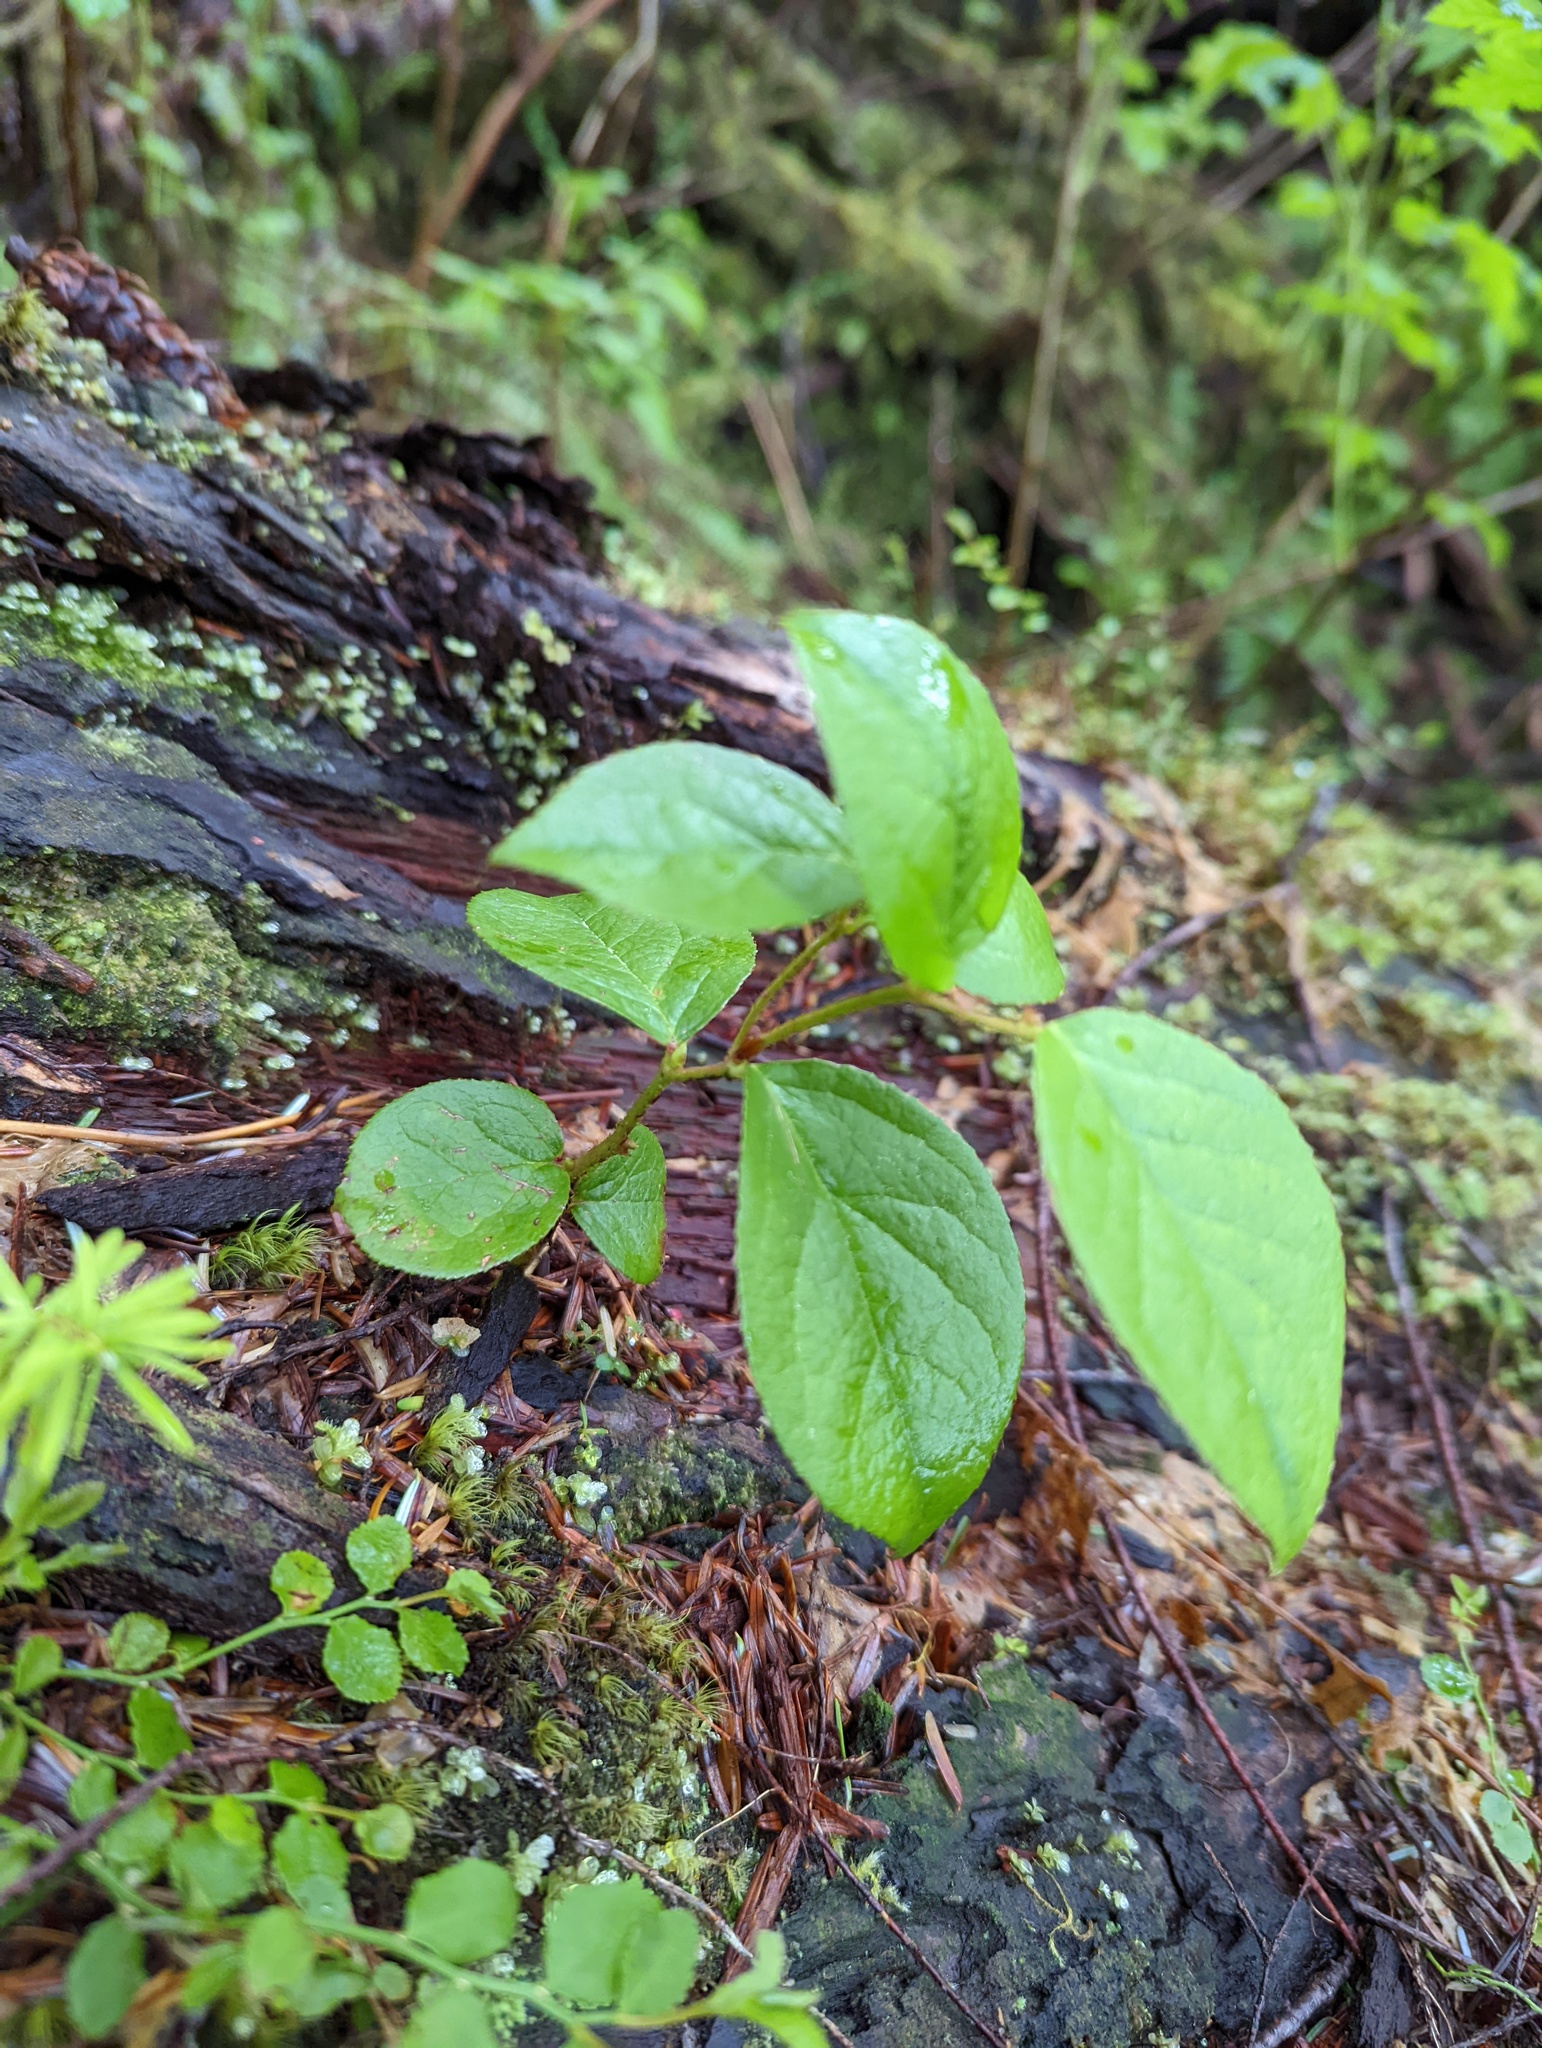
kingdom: Plantae
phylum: Tracheophyta
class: Magnoliopsida
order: Ericales
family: Ericaceae
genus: Gaultheria
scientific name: Gaultheria shallon
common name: Shallon
